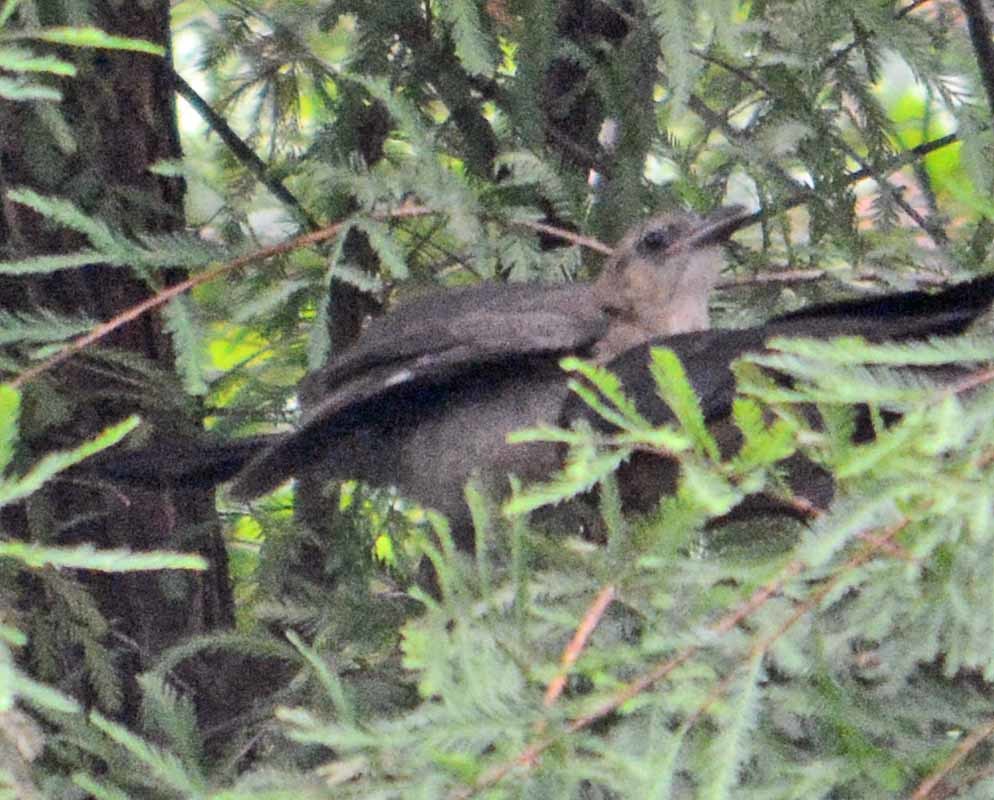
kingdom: Animalia
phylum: Chordata
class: Aves
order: Passeriformes
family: Icteridae
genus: Quiscalus
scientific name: Quiscalus mexicanus
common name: Great-tailed grackle
